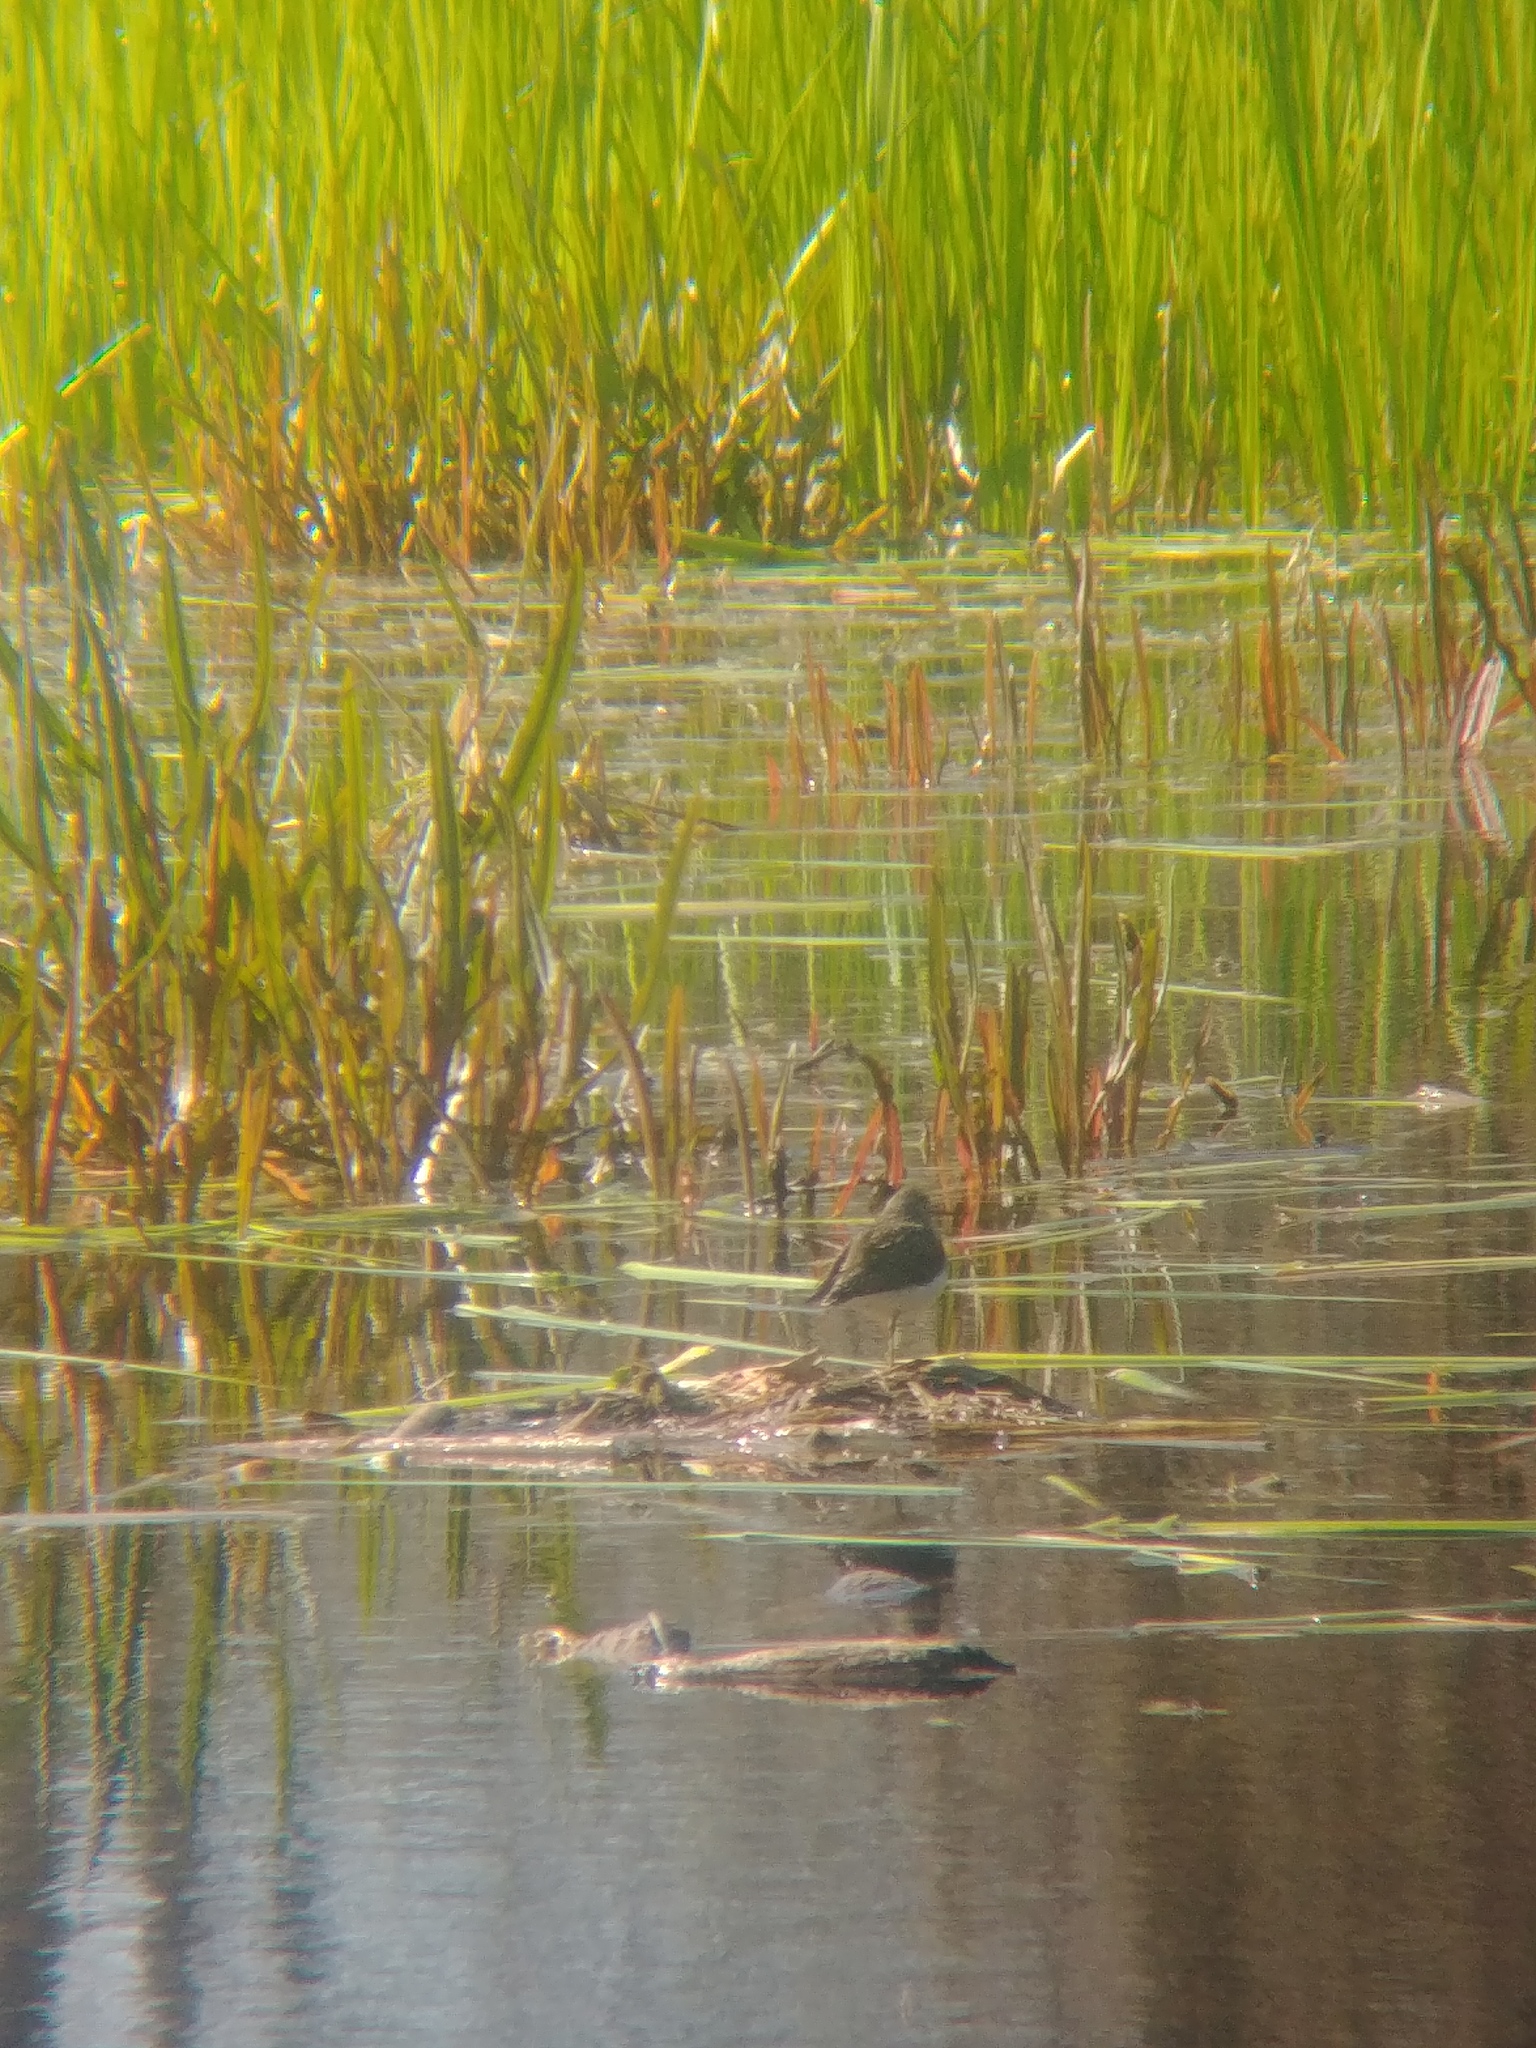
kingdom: Animalia
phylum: Chordata
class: Aves
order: Charadriiformes
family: Scolopacidae
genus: Tringa
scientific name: Tringa solitaria
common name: Solitary sandpiper
